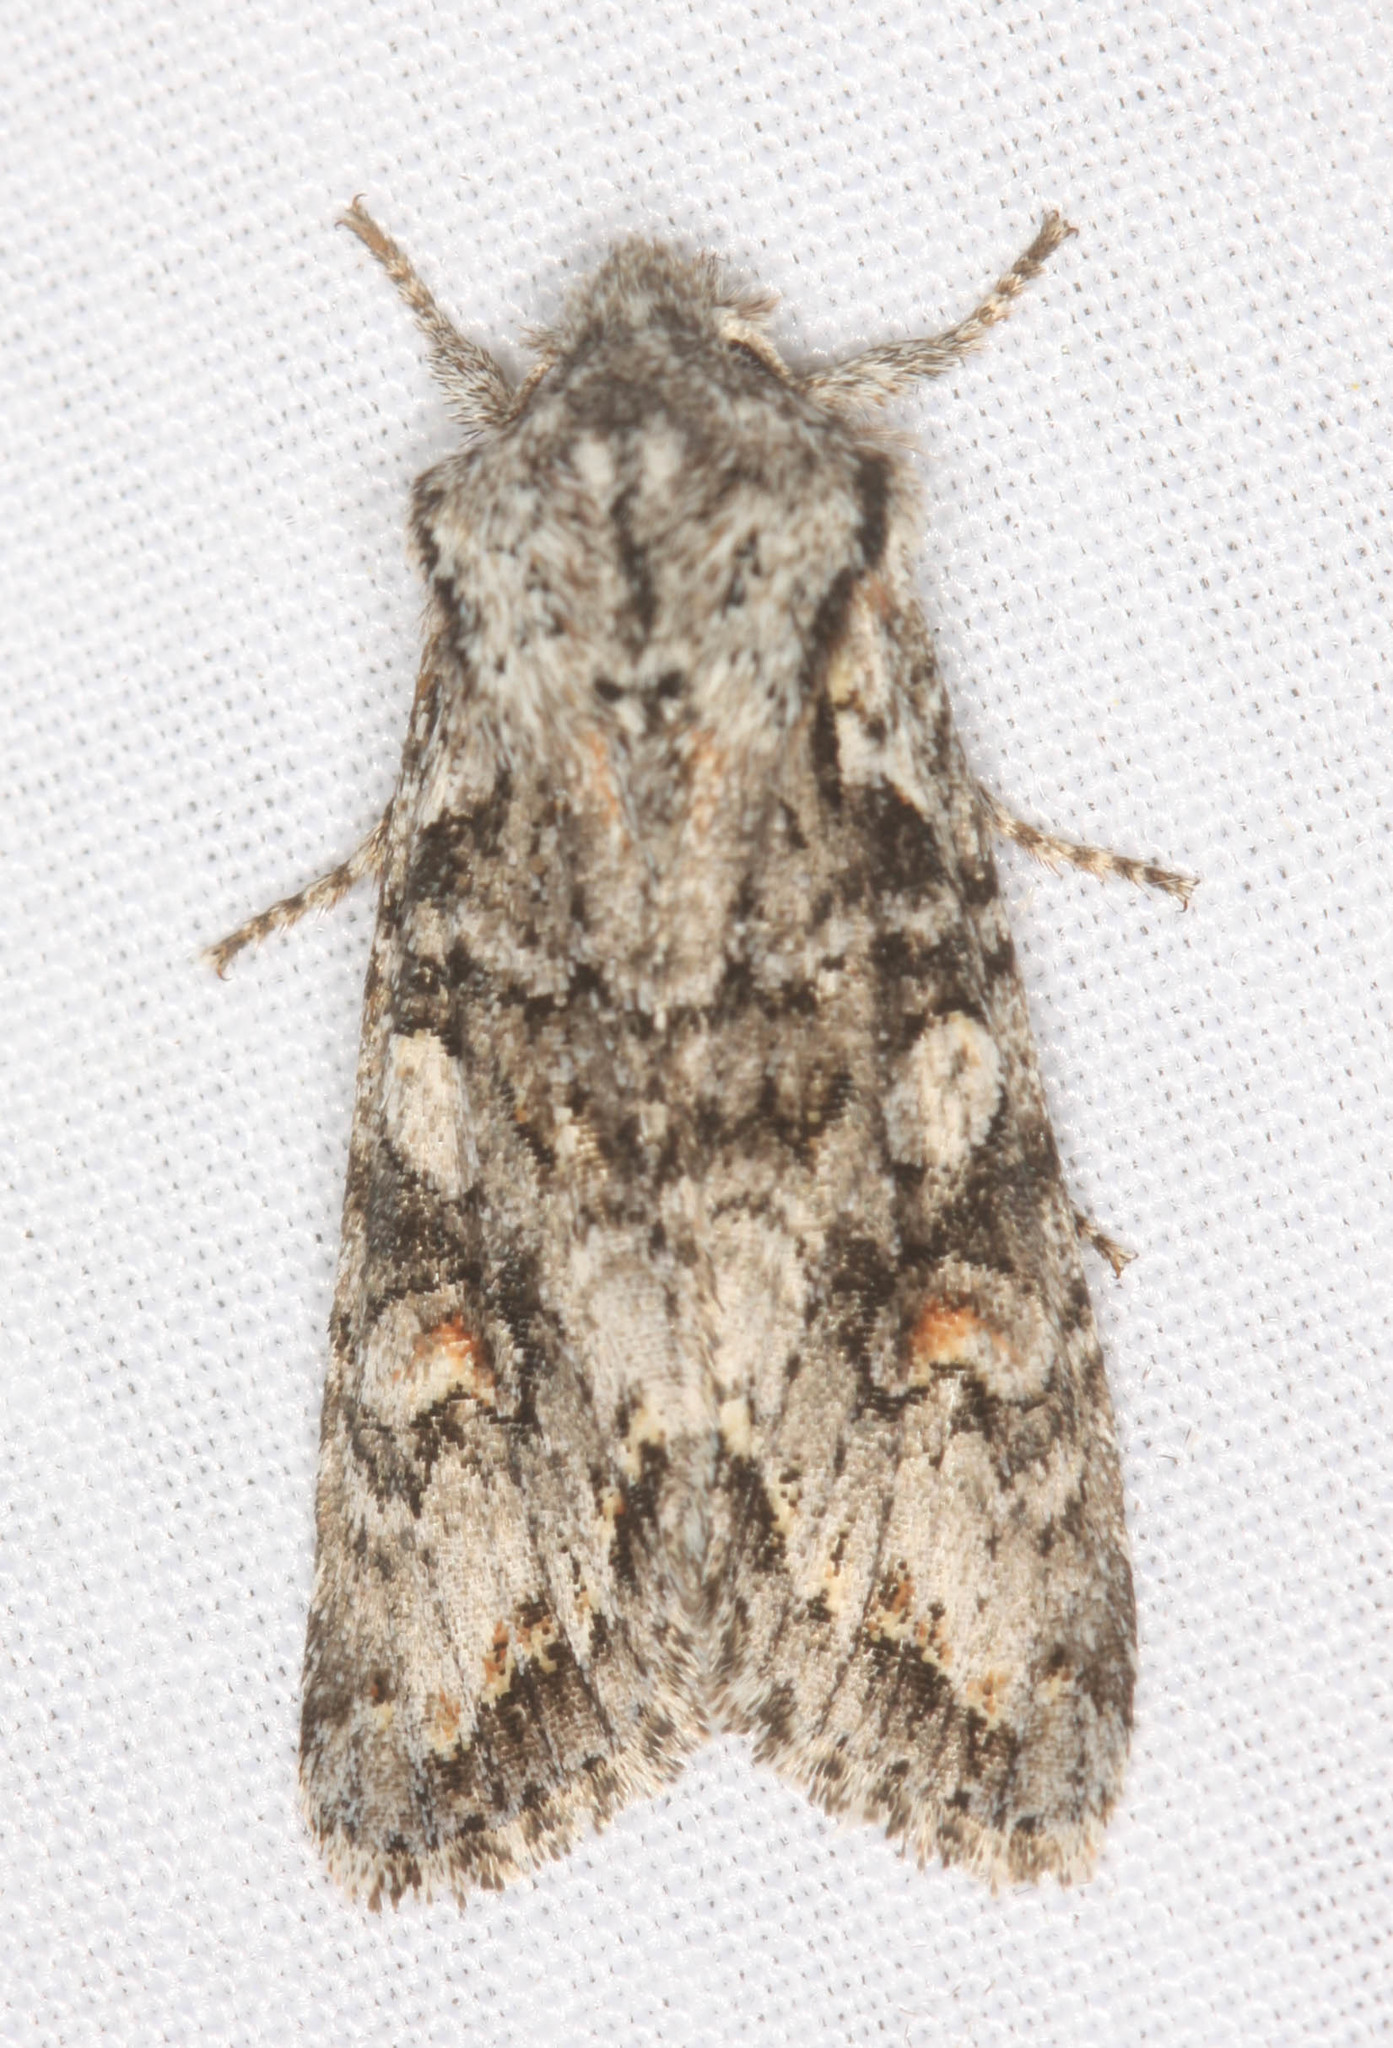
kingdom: Animalia
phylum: Arthropoda
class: Insecta
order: Lepidoptera
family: Noctuidae
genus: Egira
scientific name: Egira hiemalis
